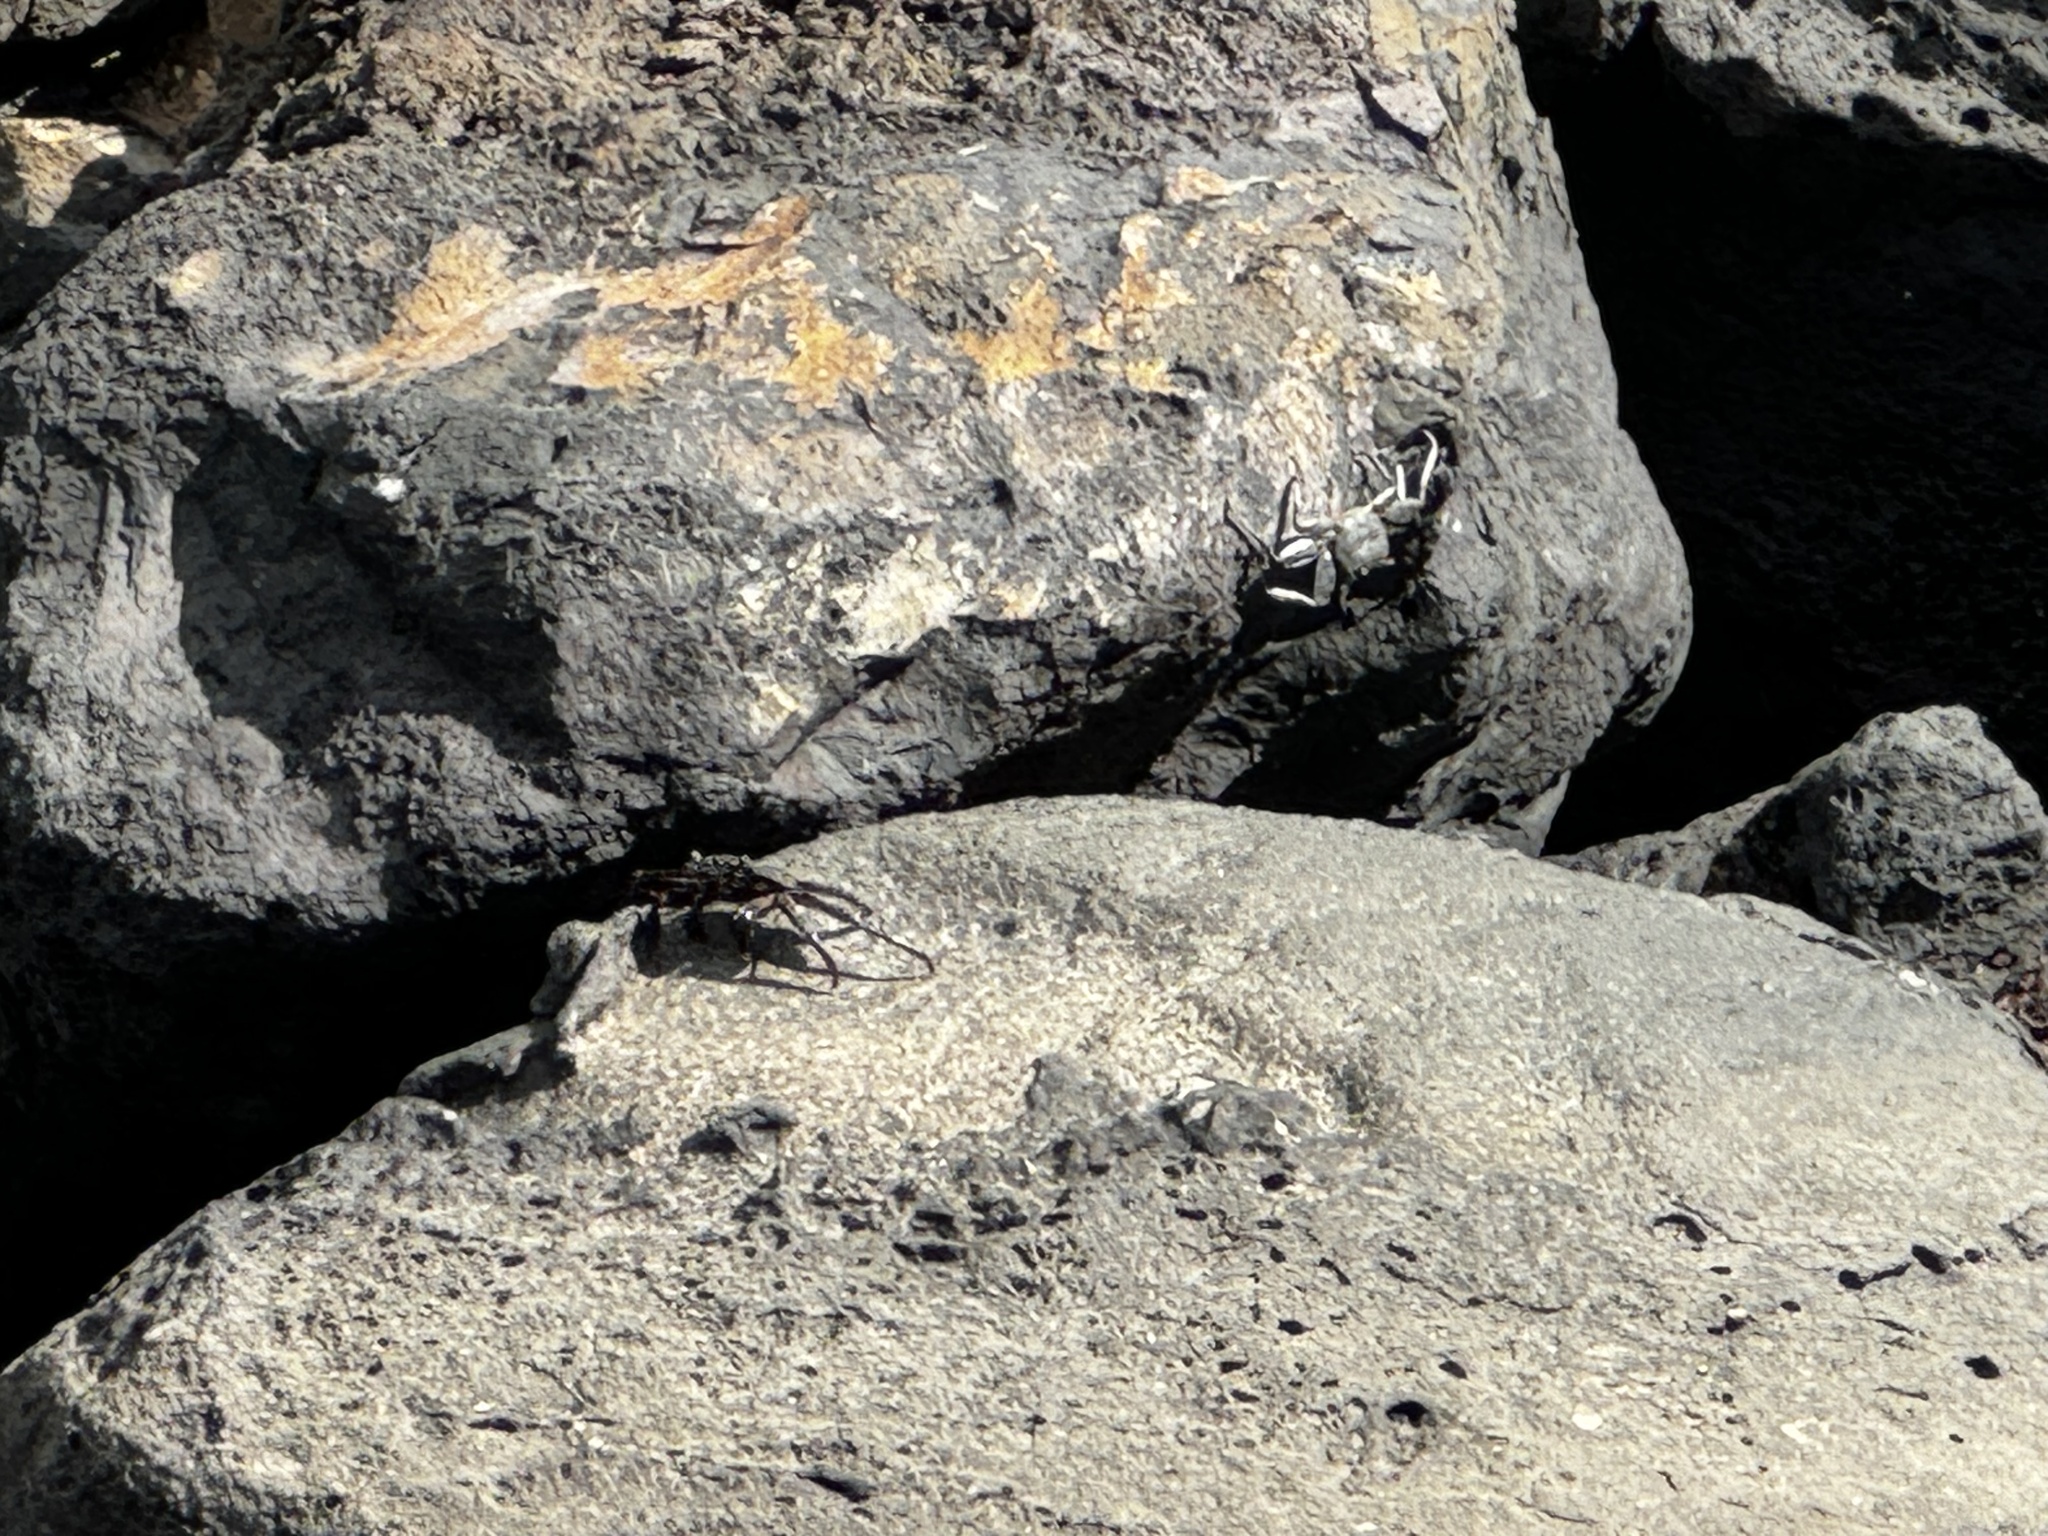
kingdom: Animalia
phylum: Arthropoda
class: Malacostraca
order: Decapoda
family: Grapsidae
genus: Grapsus
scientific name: Grapsus tenuicrustatus
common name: Natal lightfoot crab
